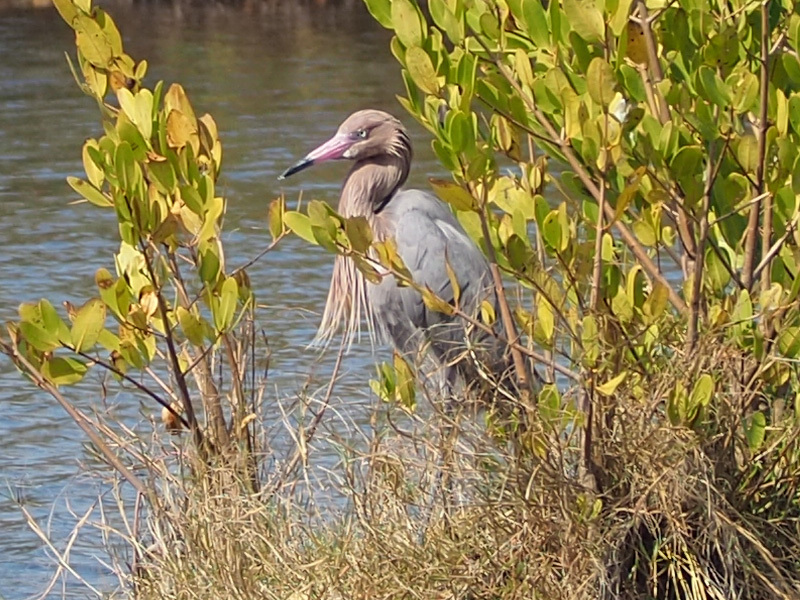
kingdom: Animalia
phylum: Chordata
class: Aves
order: Pelecaniformes
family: Ardeidae
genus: Egretta
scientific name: Egretta rufescens
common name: Reddish egret
